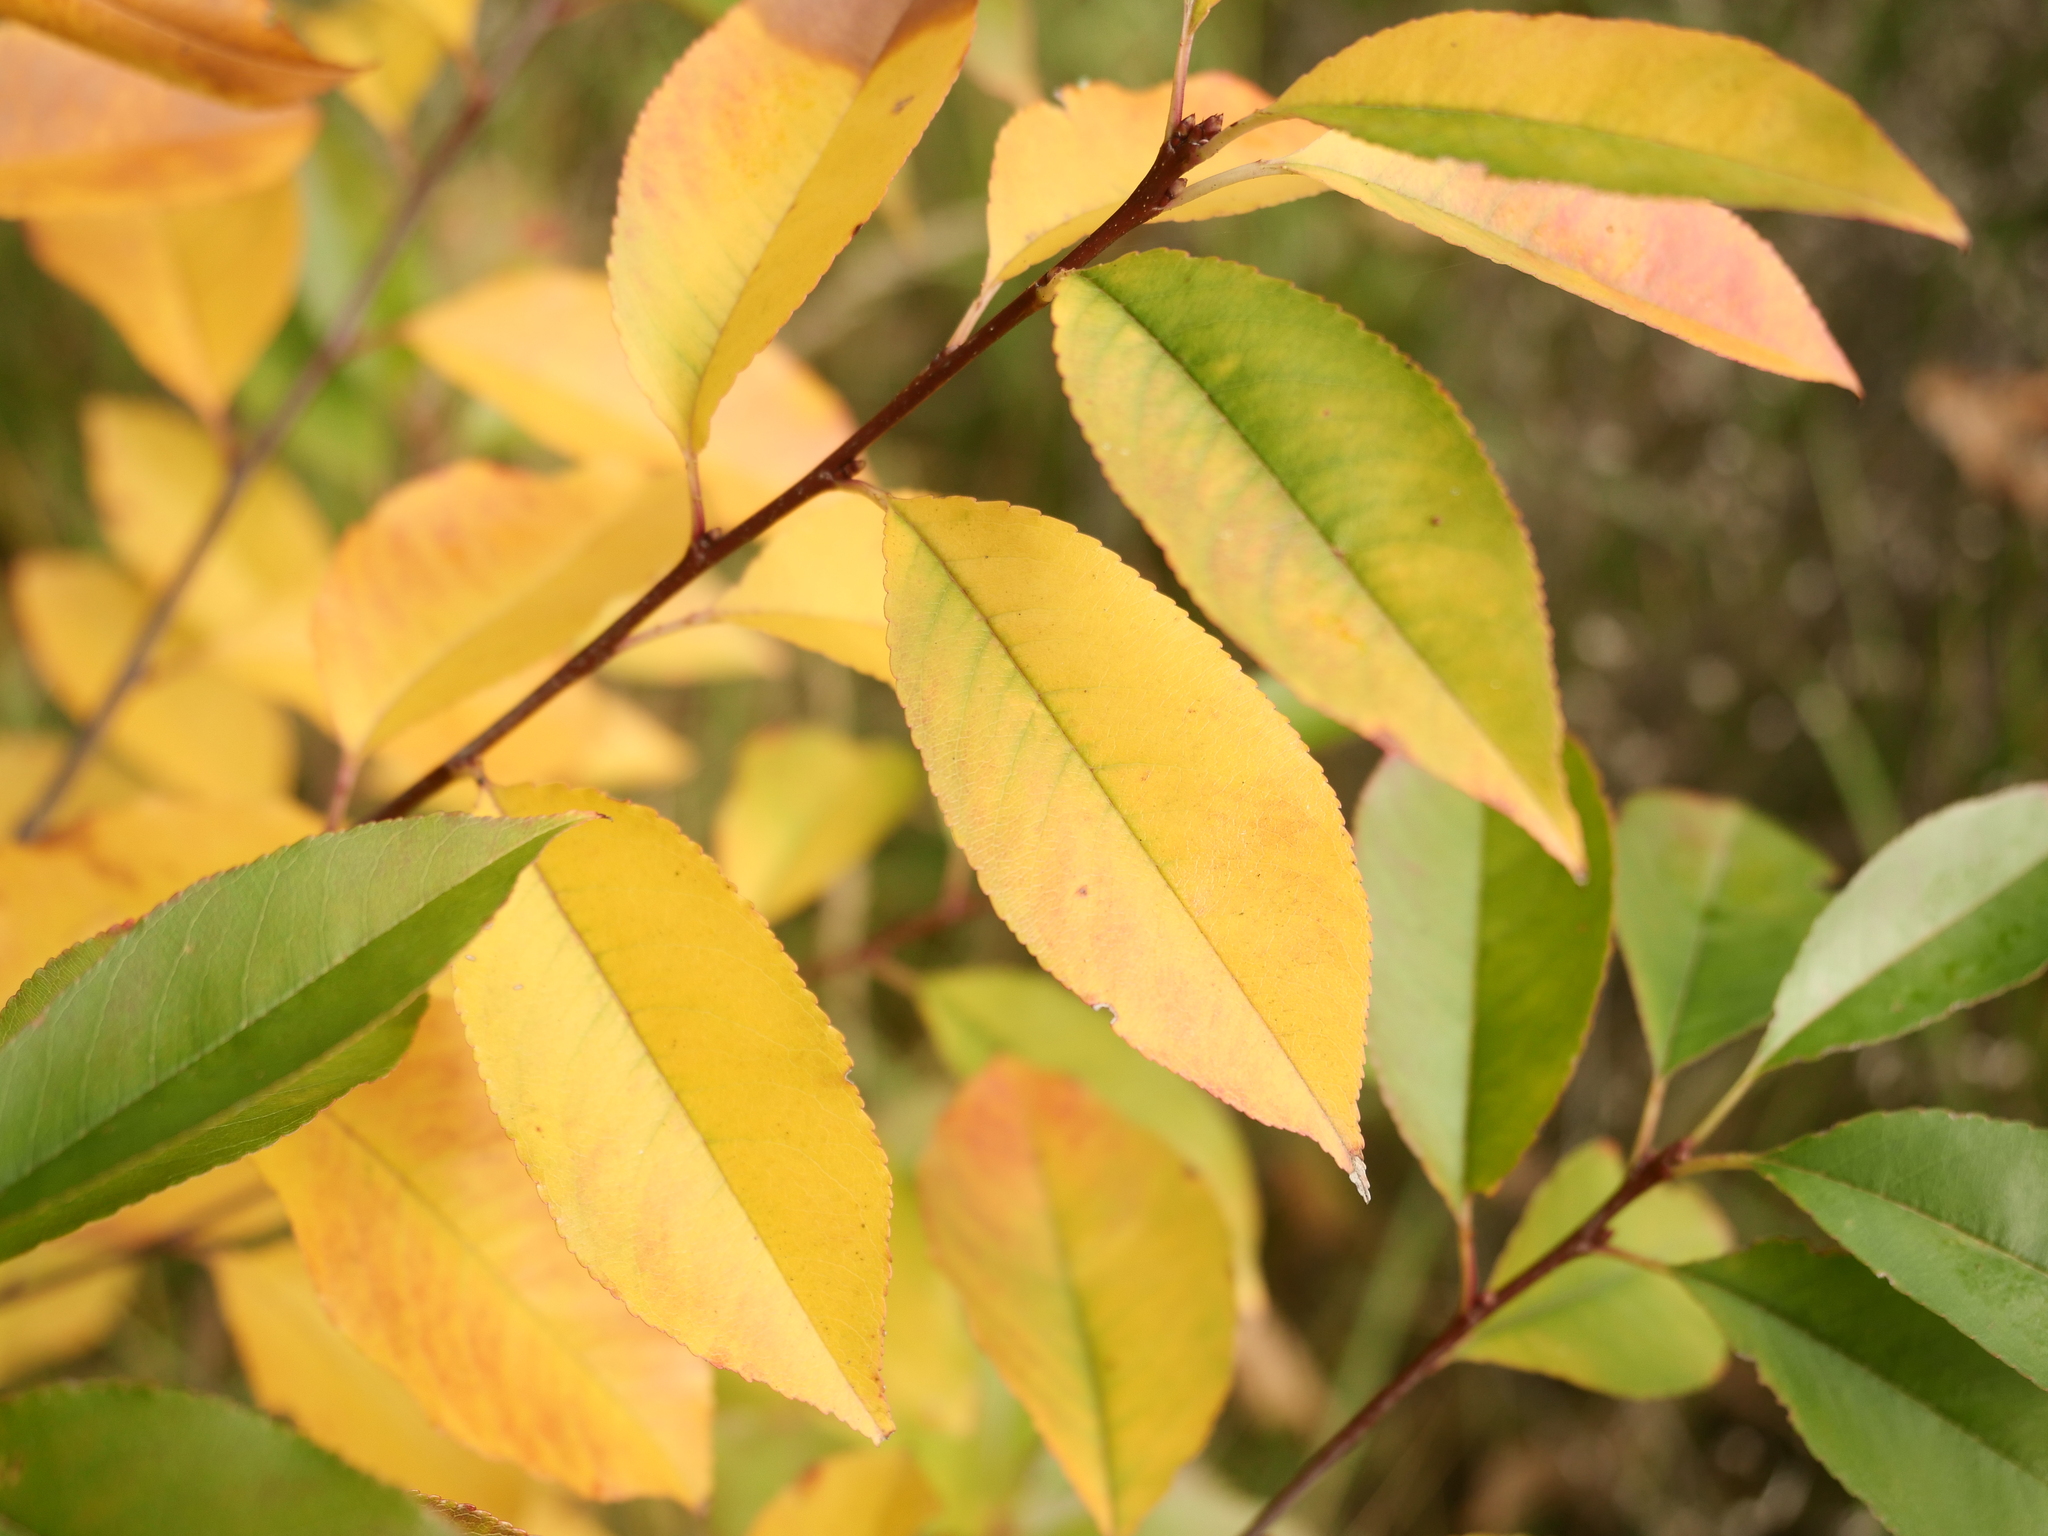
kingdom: Plantae
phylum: Tracheophyta
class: Magnoliopsida
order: Rosales
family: Rosaceae
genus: Prunus
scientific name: Prunus serotina
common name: Black cherry
